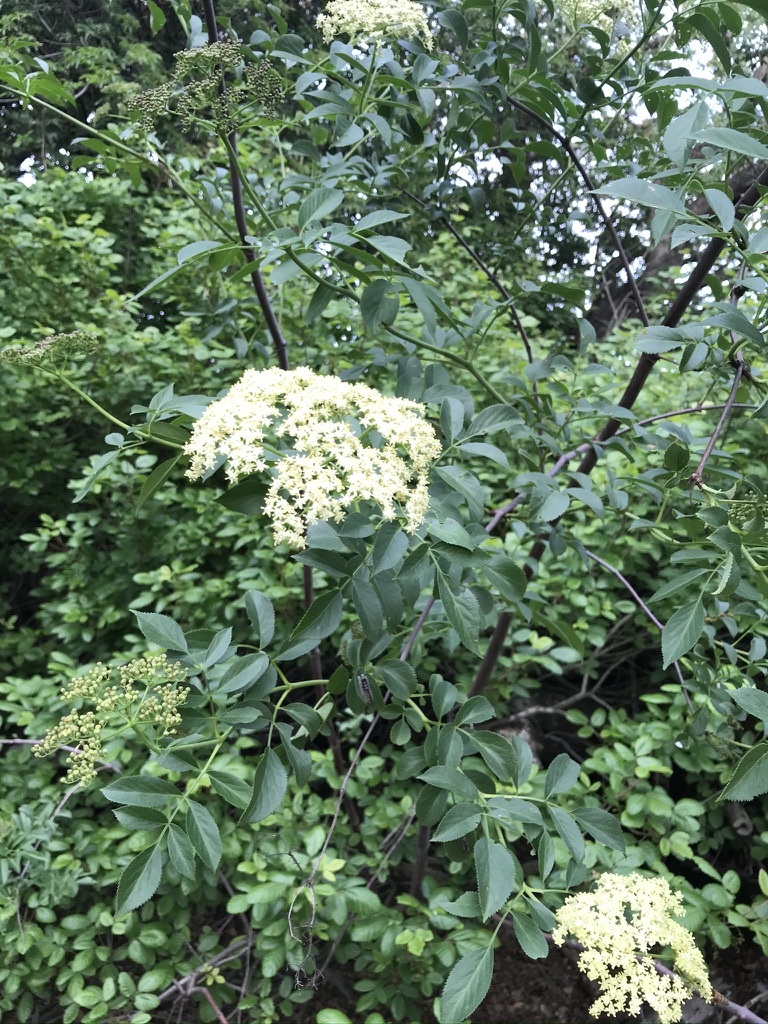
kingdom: Plantae
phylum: Tracheophyta
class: Magnoliopsida
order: Dipsacales
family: Viburnaceae
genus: Sambucus
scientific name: Sambucus cerulea
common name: Blue elder
